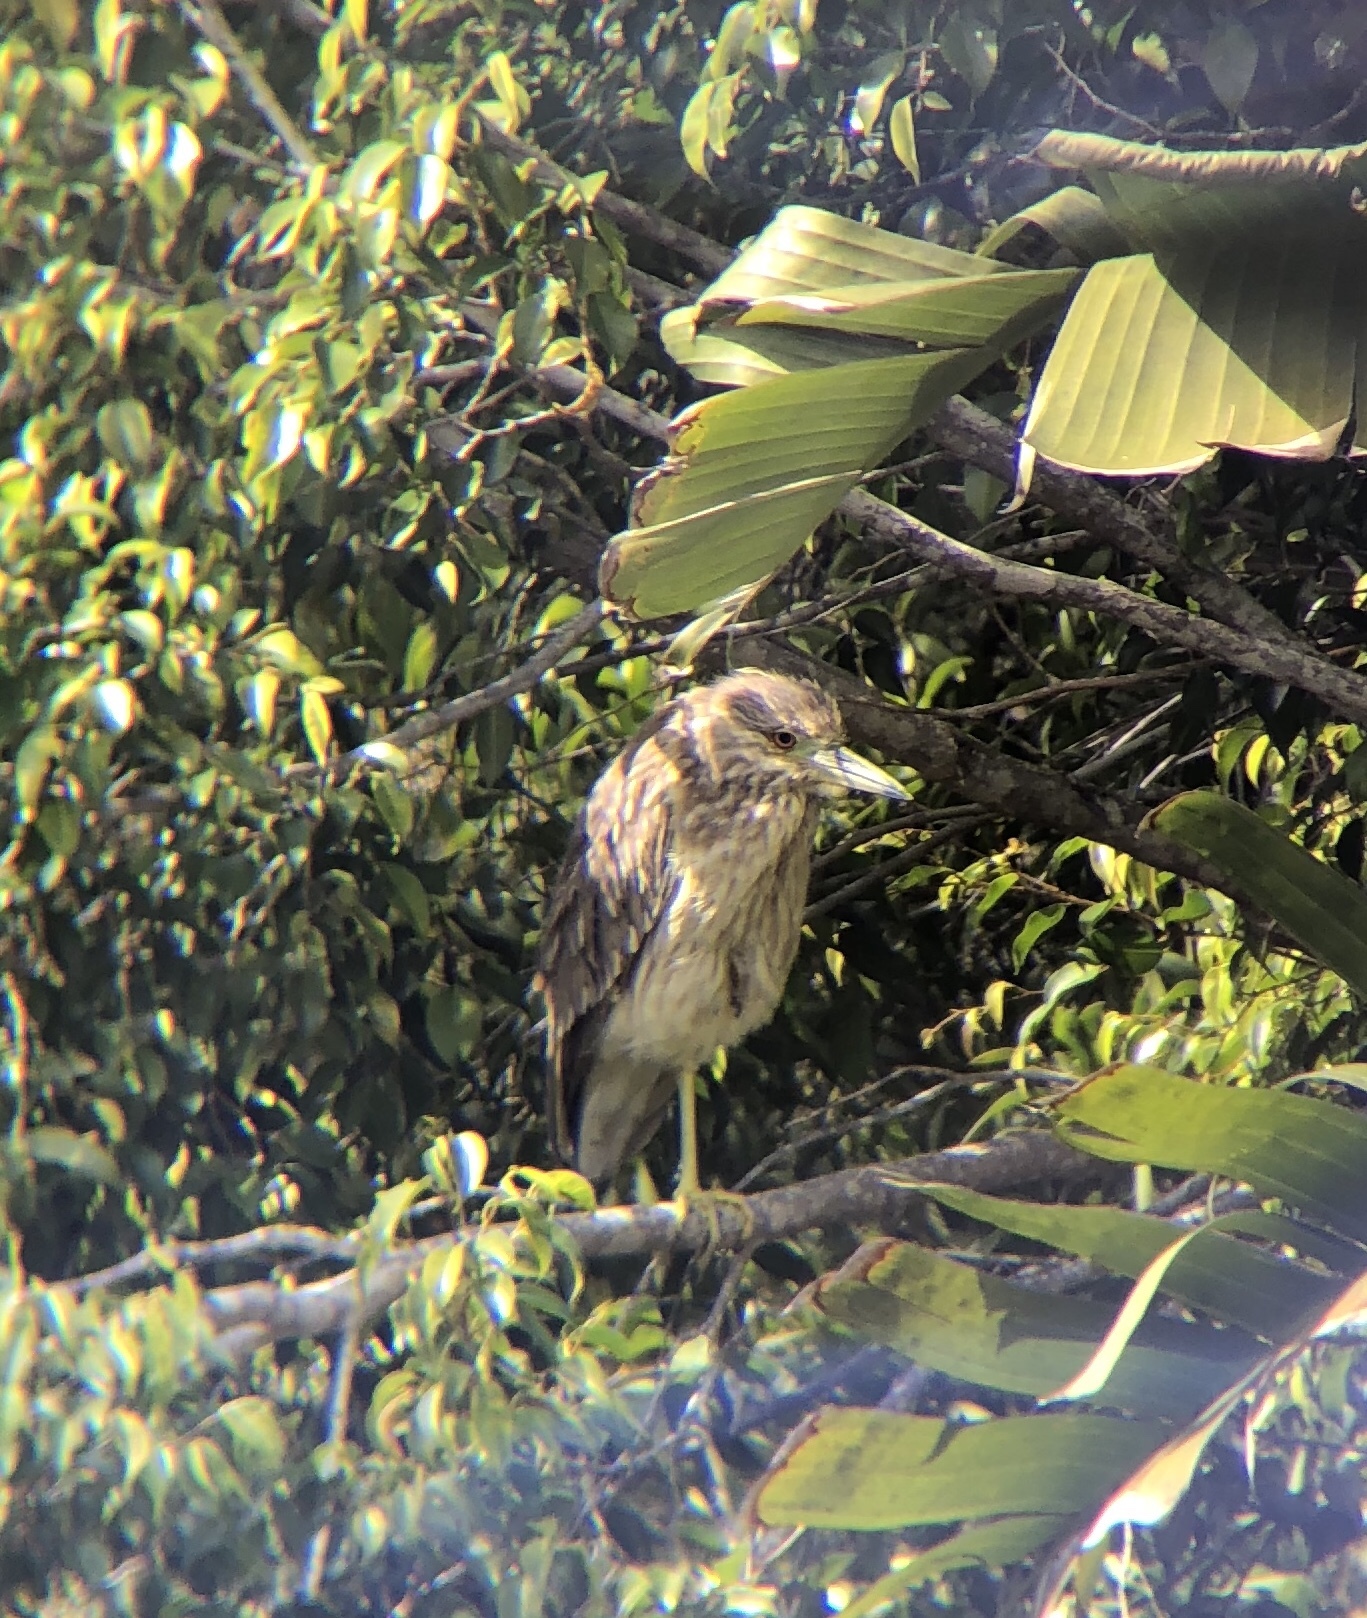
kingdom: Animalia
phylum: Chordata
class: Aves
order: Pelecaniformes
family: Ardeidae
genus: Nycticorax
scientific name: Nycticorax nycticorax
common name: Black-crowned night heron
